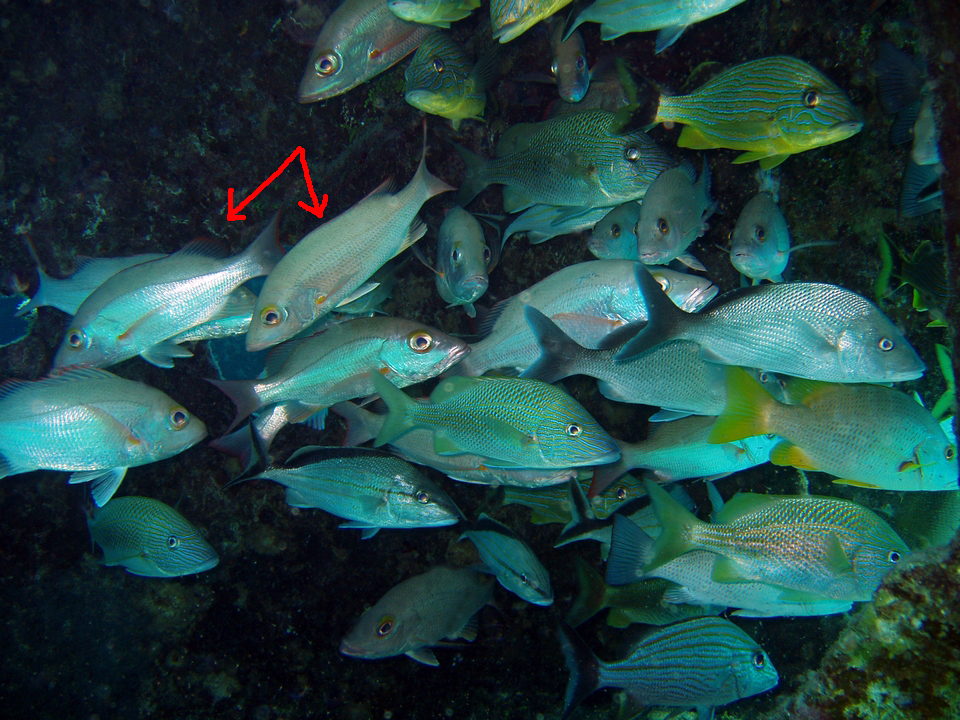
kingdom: Animalia
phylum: Chordata
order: Perciformes
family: Lutjanidae
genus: Lutjanus
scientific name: Lutjanus mahogoni
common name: Spot snapper
